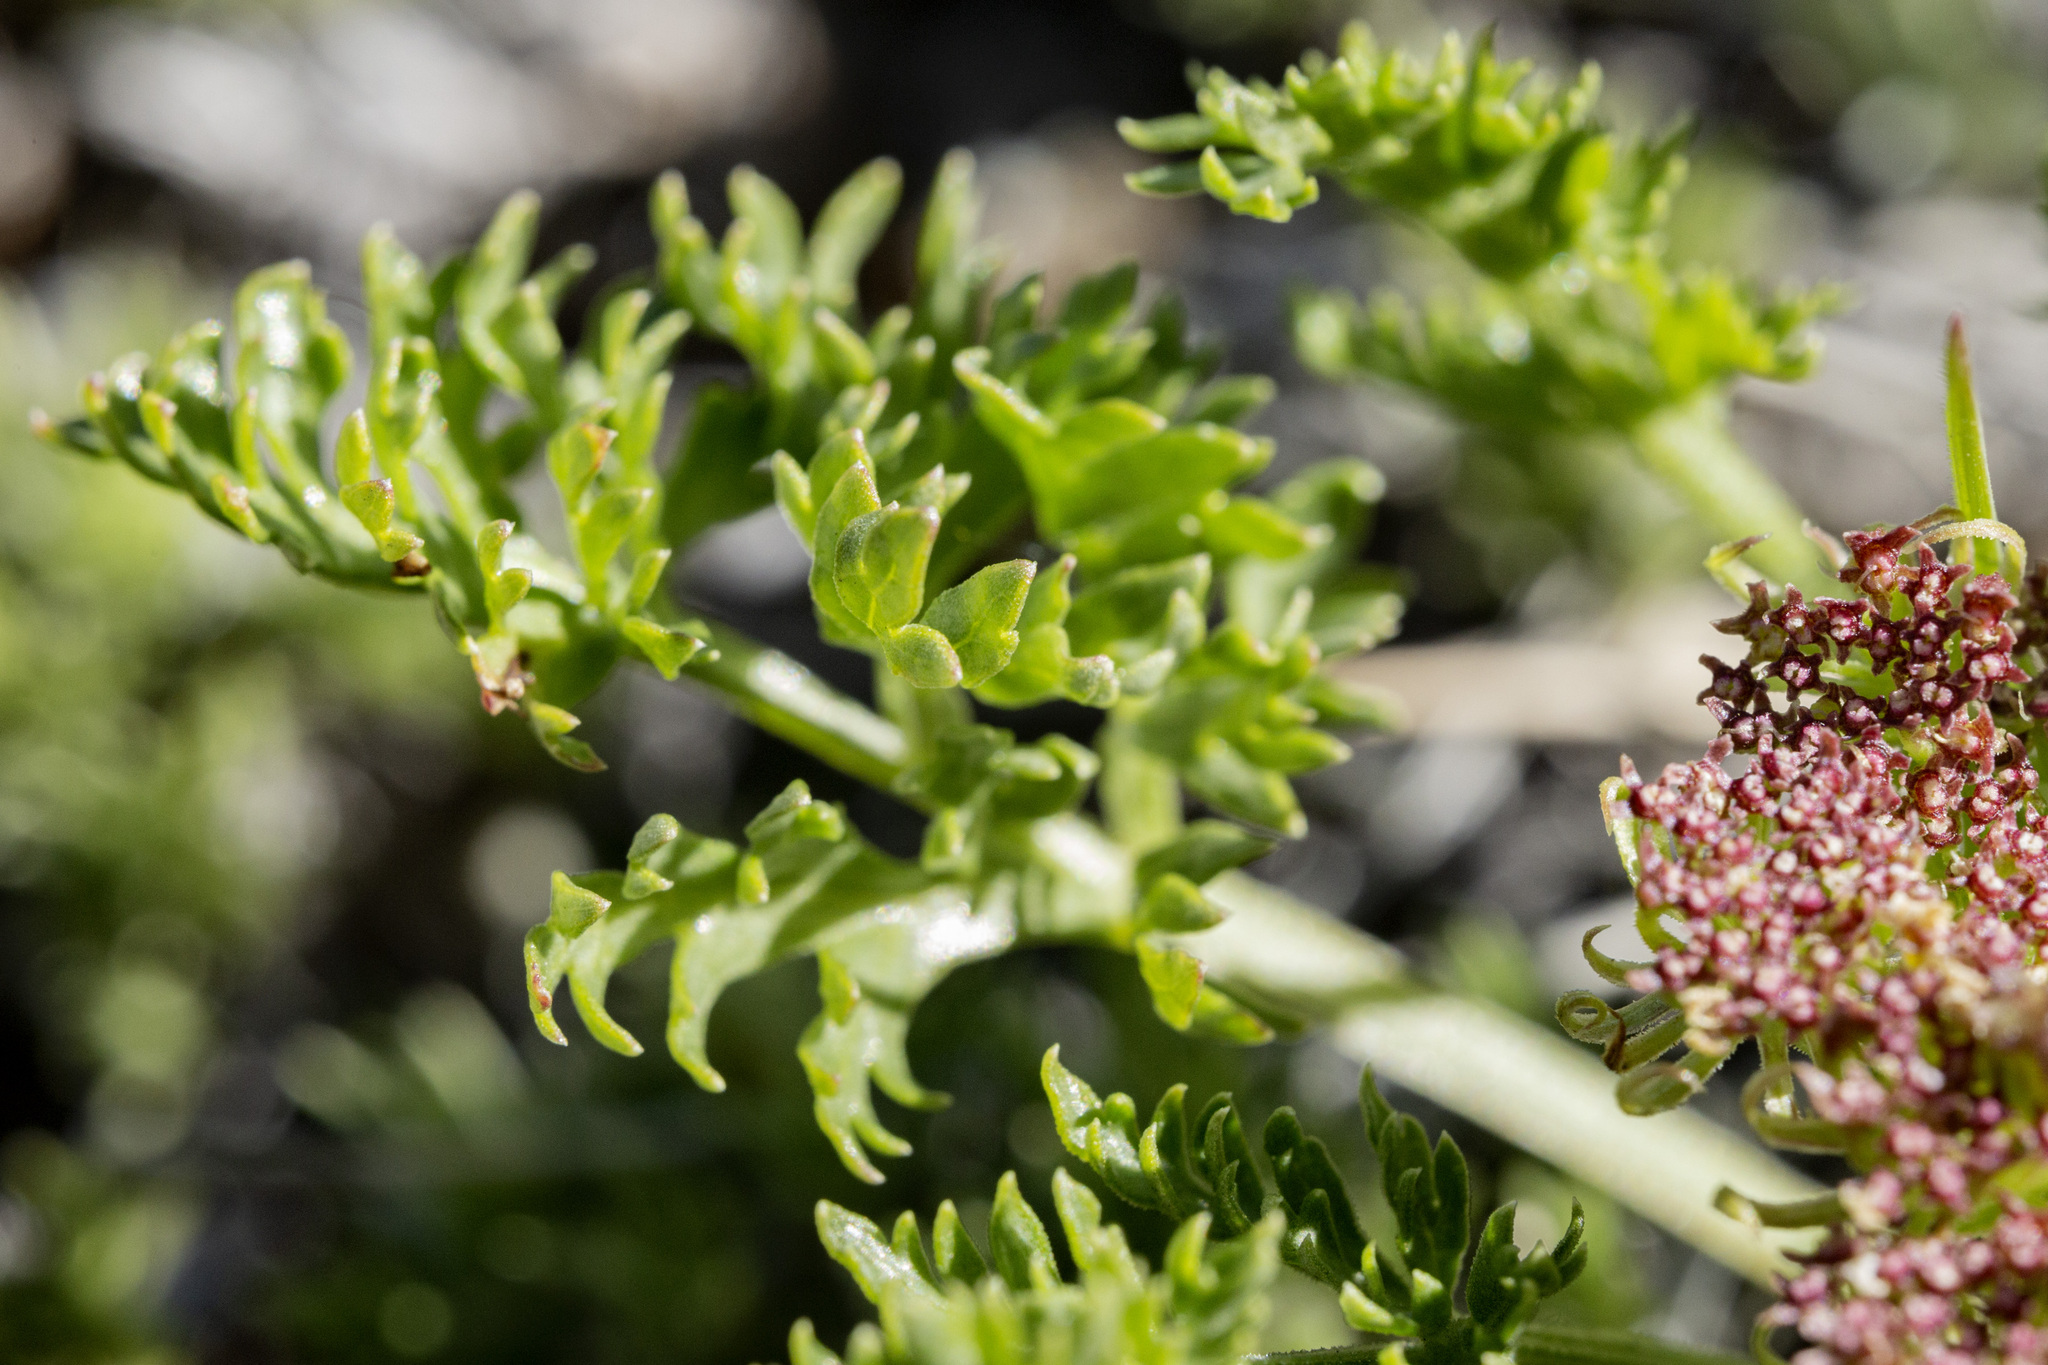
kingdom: Plantae
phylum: Tracheophyta
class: Magnoliopsida
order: Apiales
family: Apiaceae
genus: Musineon
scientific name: Musineon divaricatum
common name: Plains musineon
